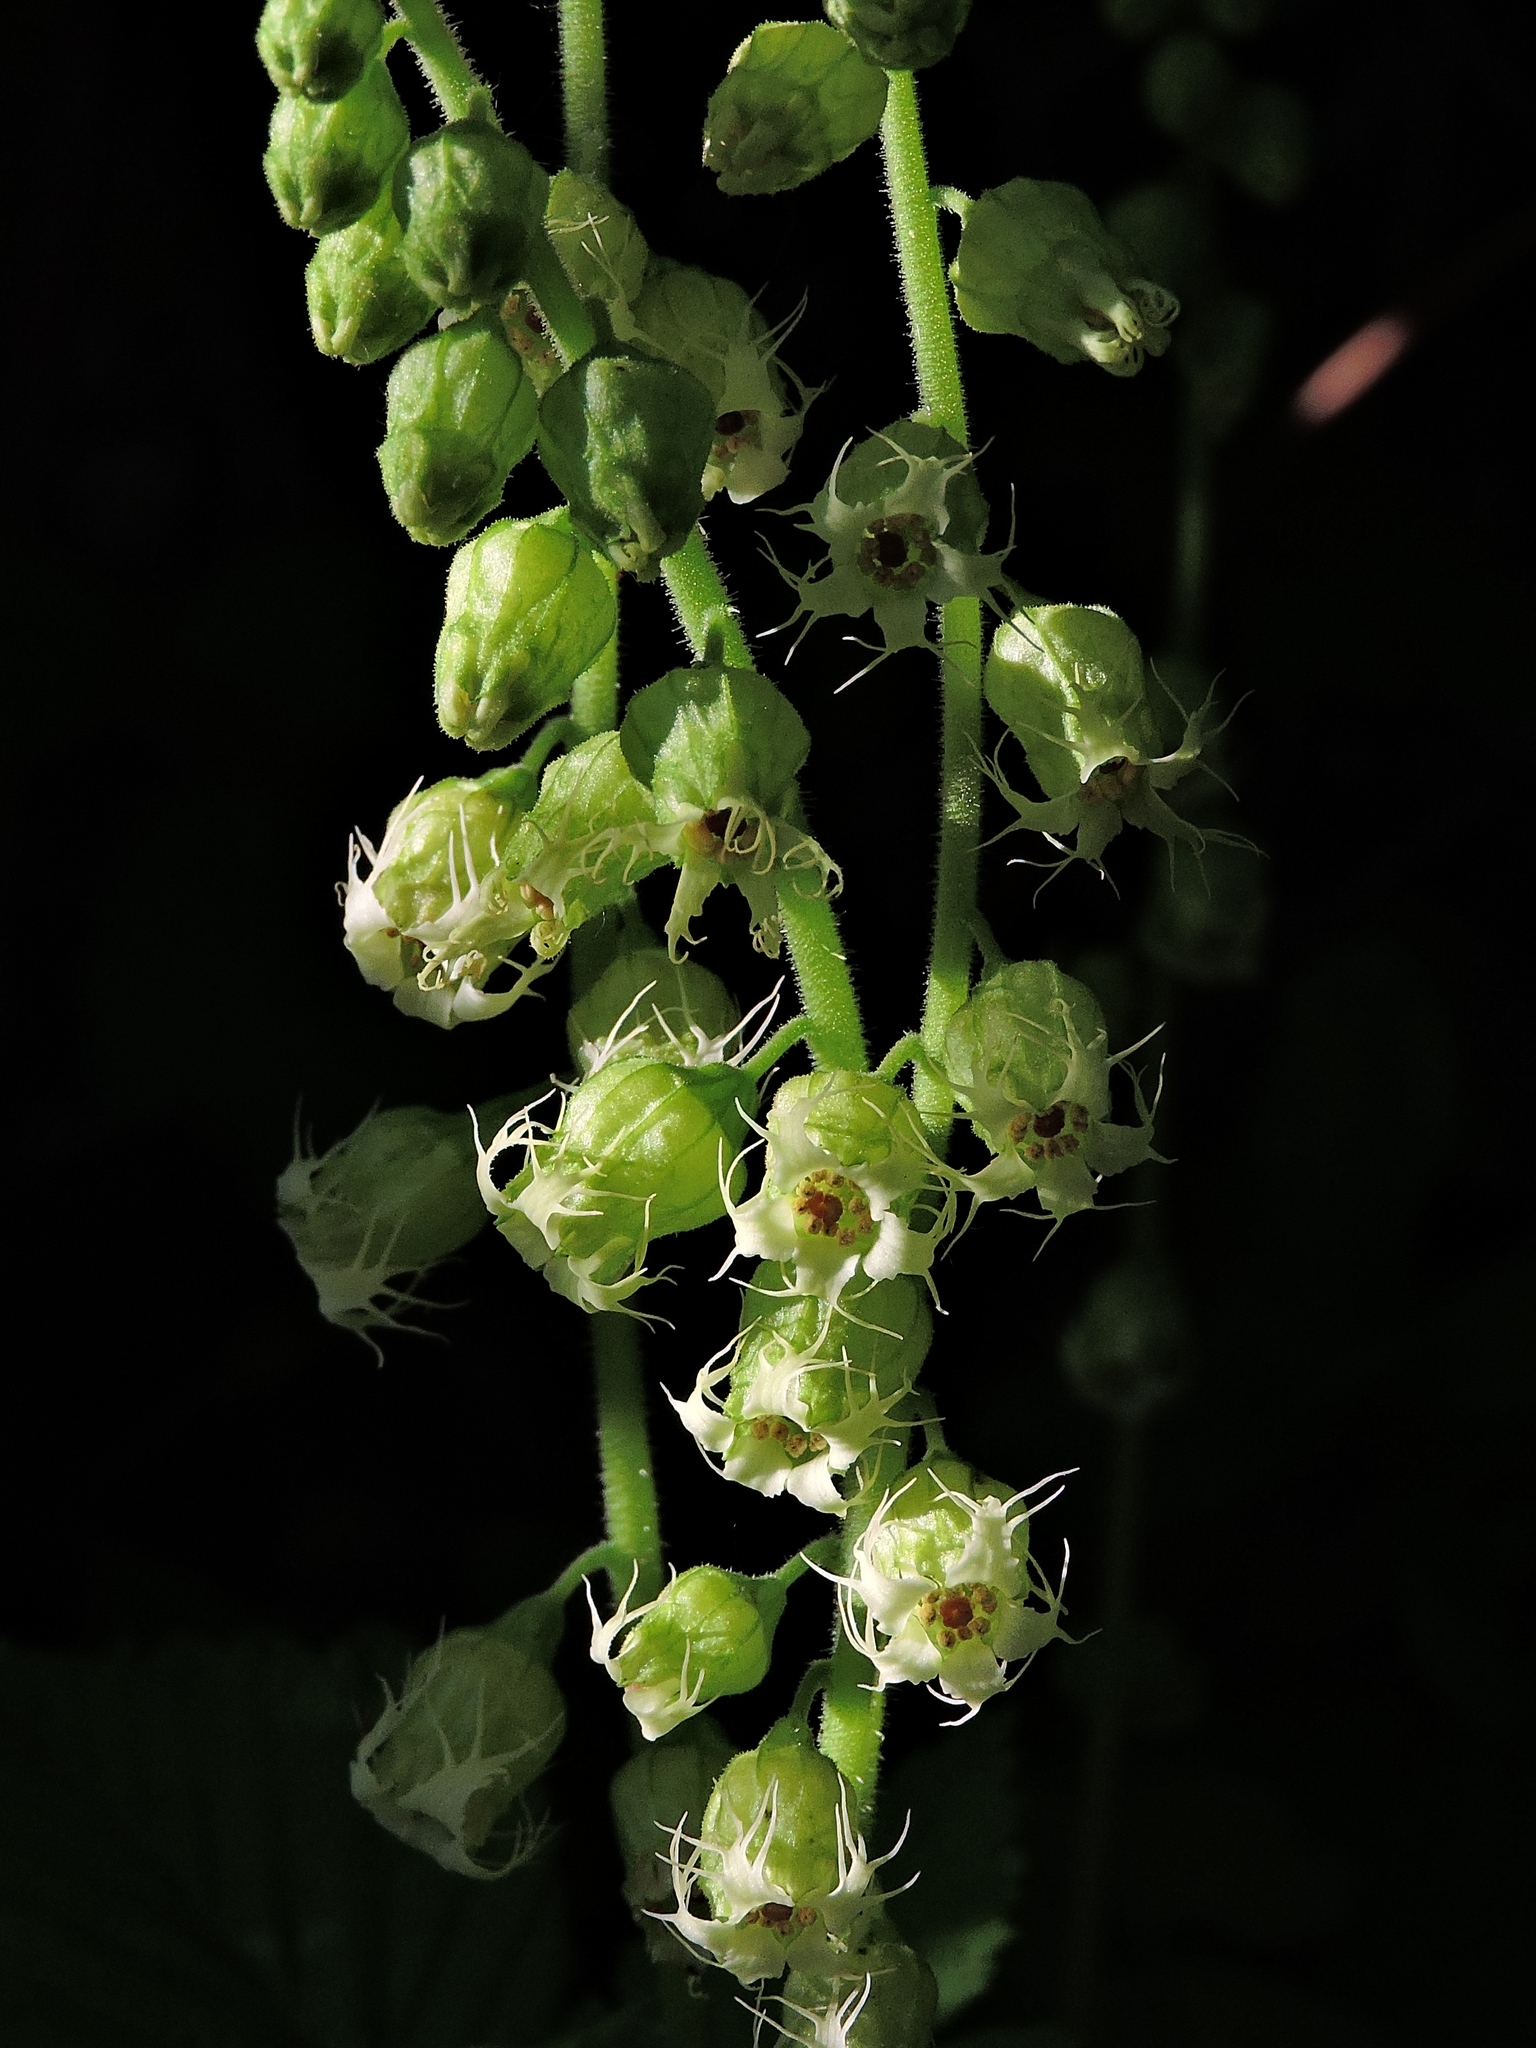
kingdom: Plantae
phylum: Tracheophyta
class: Magnoliopsida
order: Saxifragales
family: Saxifragaceae
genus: Tellima
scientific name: Tellima grandiflora
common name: Fringecups
